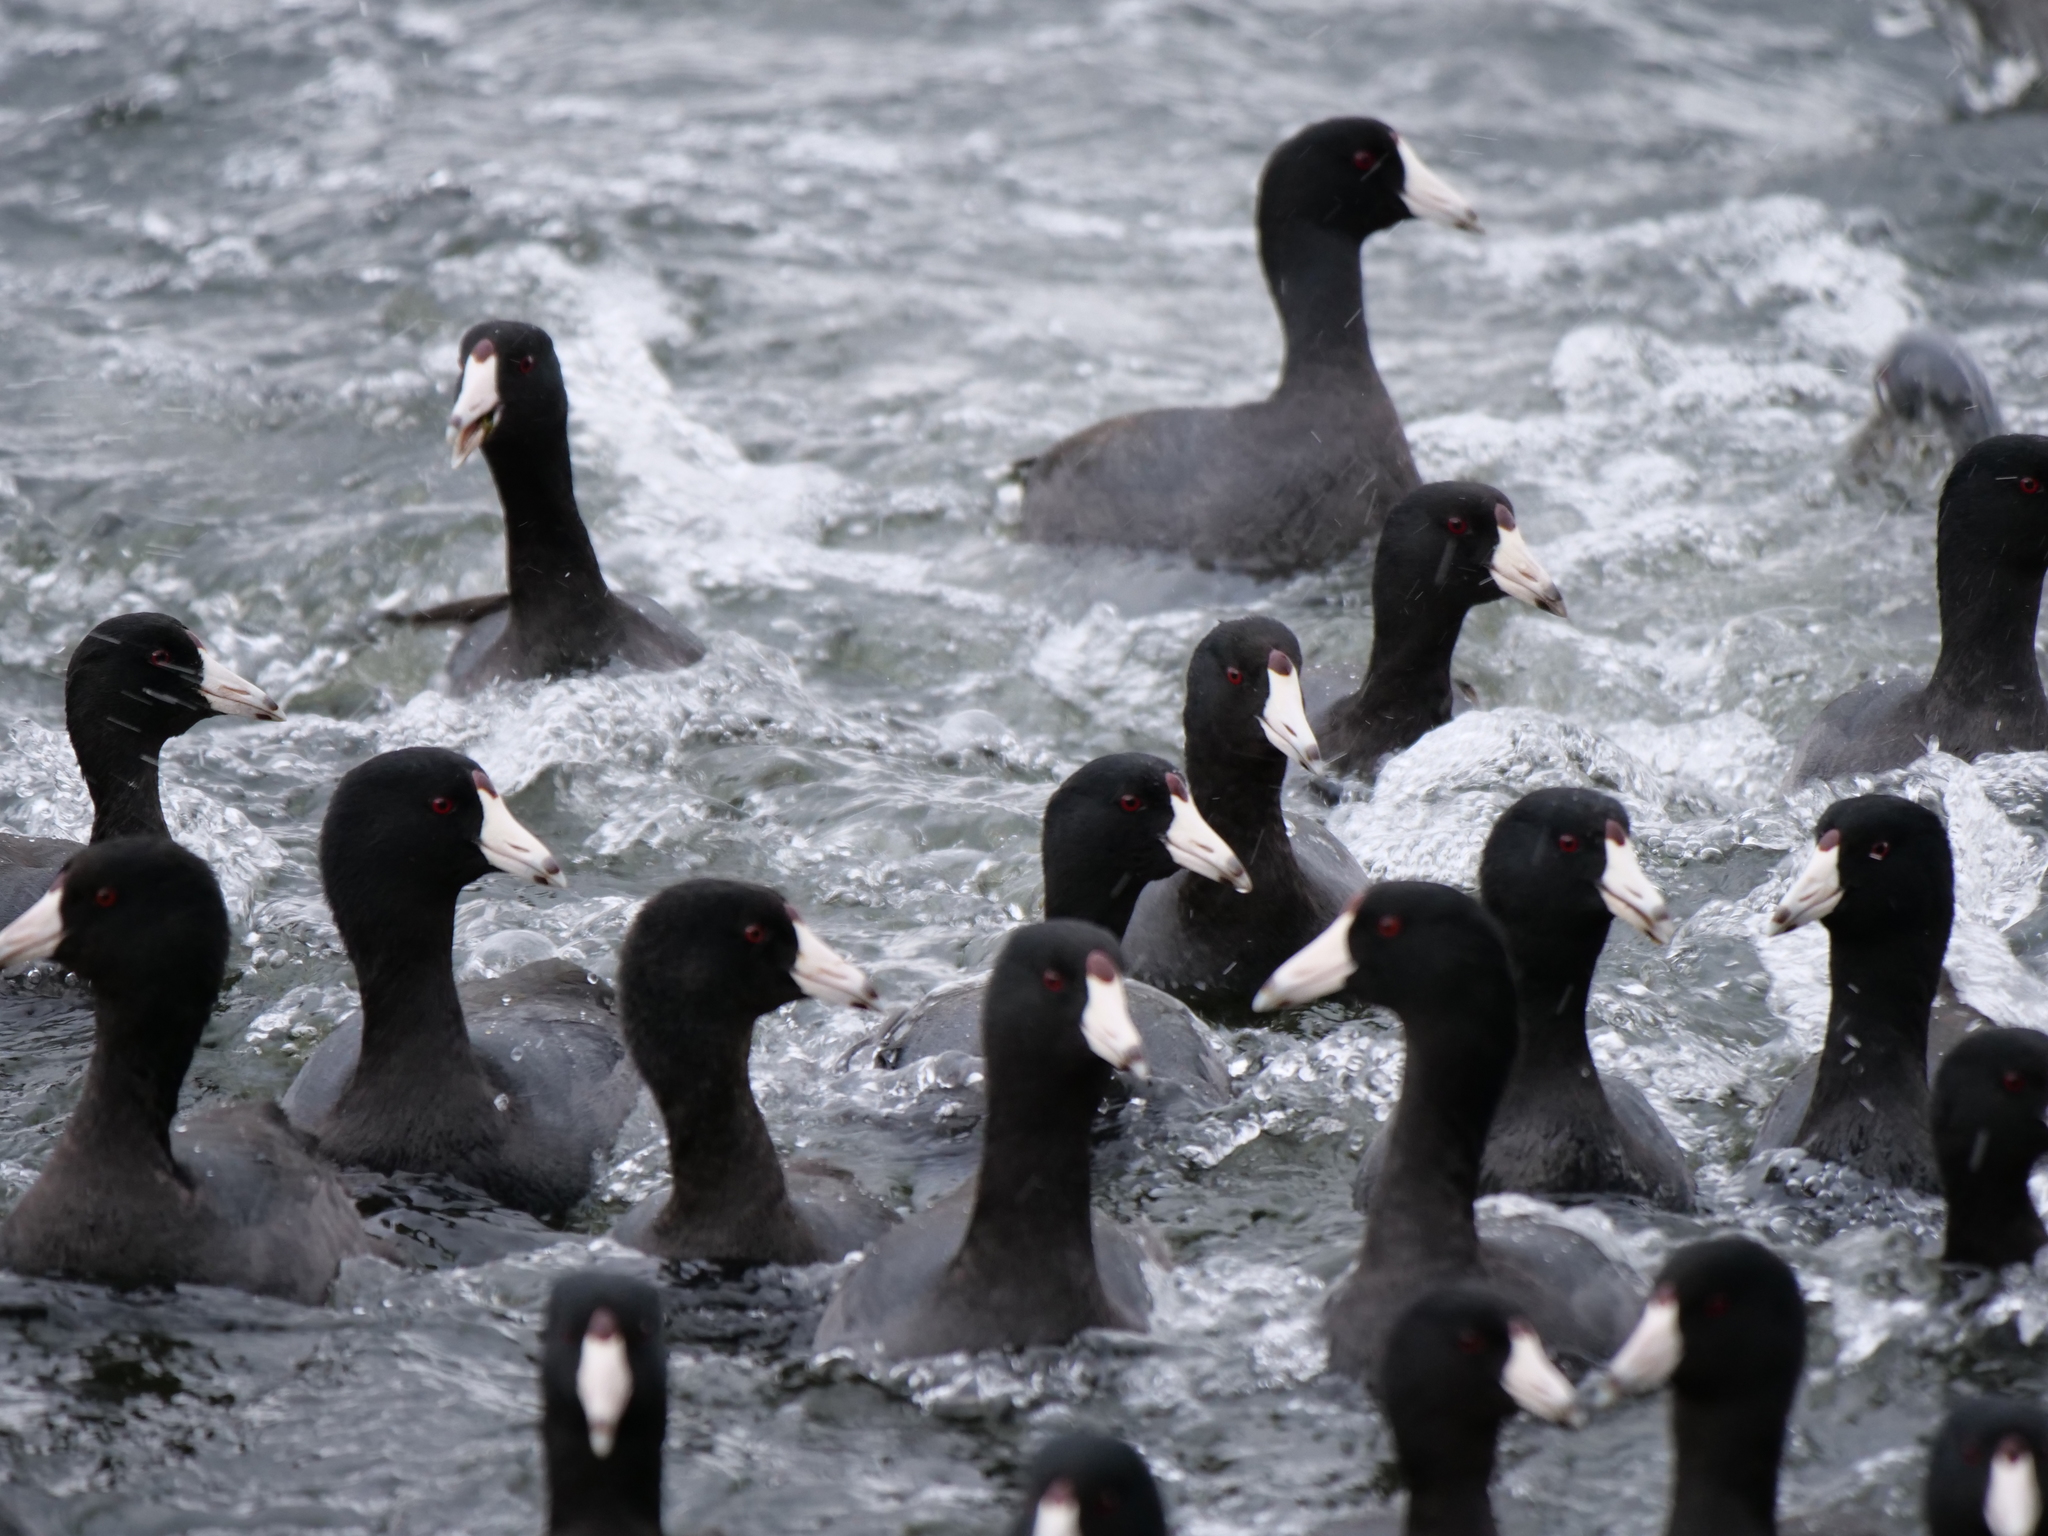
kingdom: Animalia
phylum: Chordata
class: Aves
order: Gruiformes
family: Rallidae
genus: Fulica
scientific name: Fulica americana
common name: American coot
